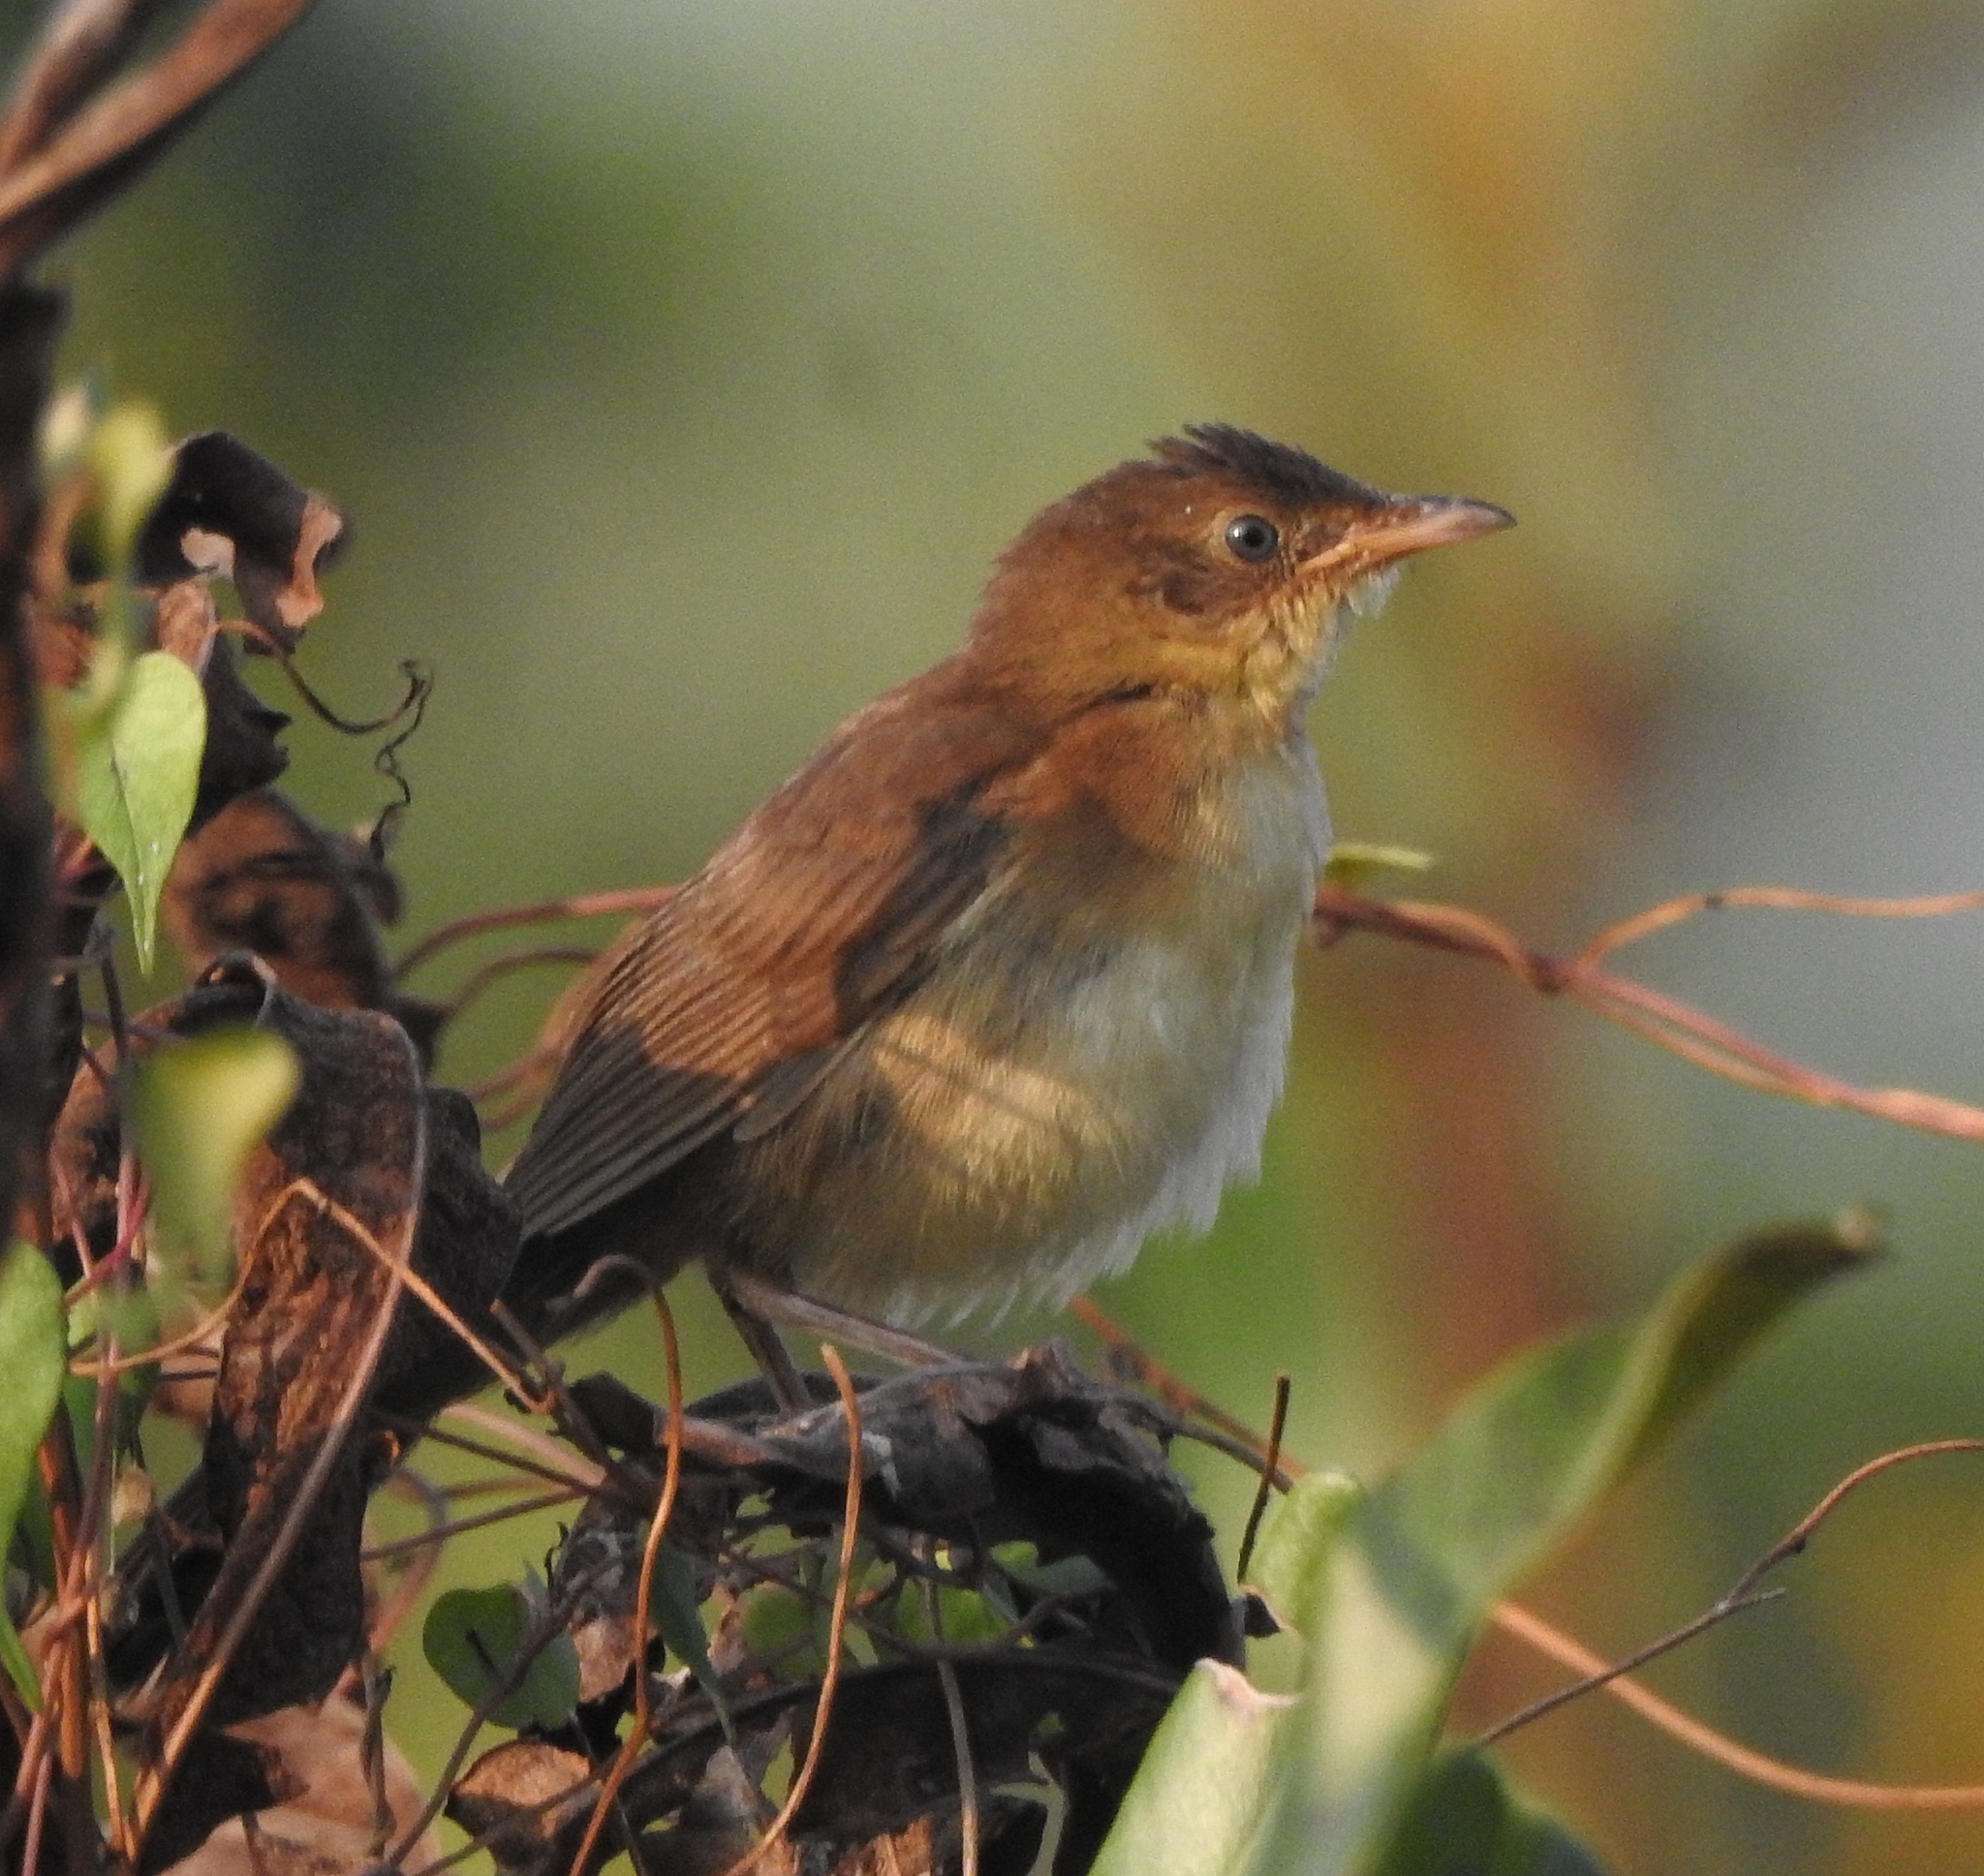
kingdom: Animalia
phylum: Chordata
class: Aves
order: Passeriformes
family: Locustellidae
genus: Schoenicola
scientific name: Schoenicola platyurus
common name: Broad-tailed grassbird
